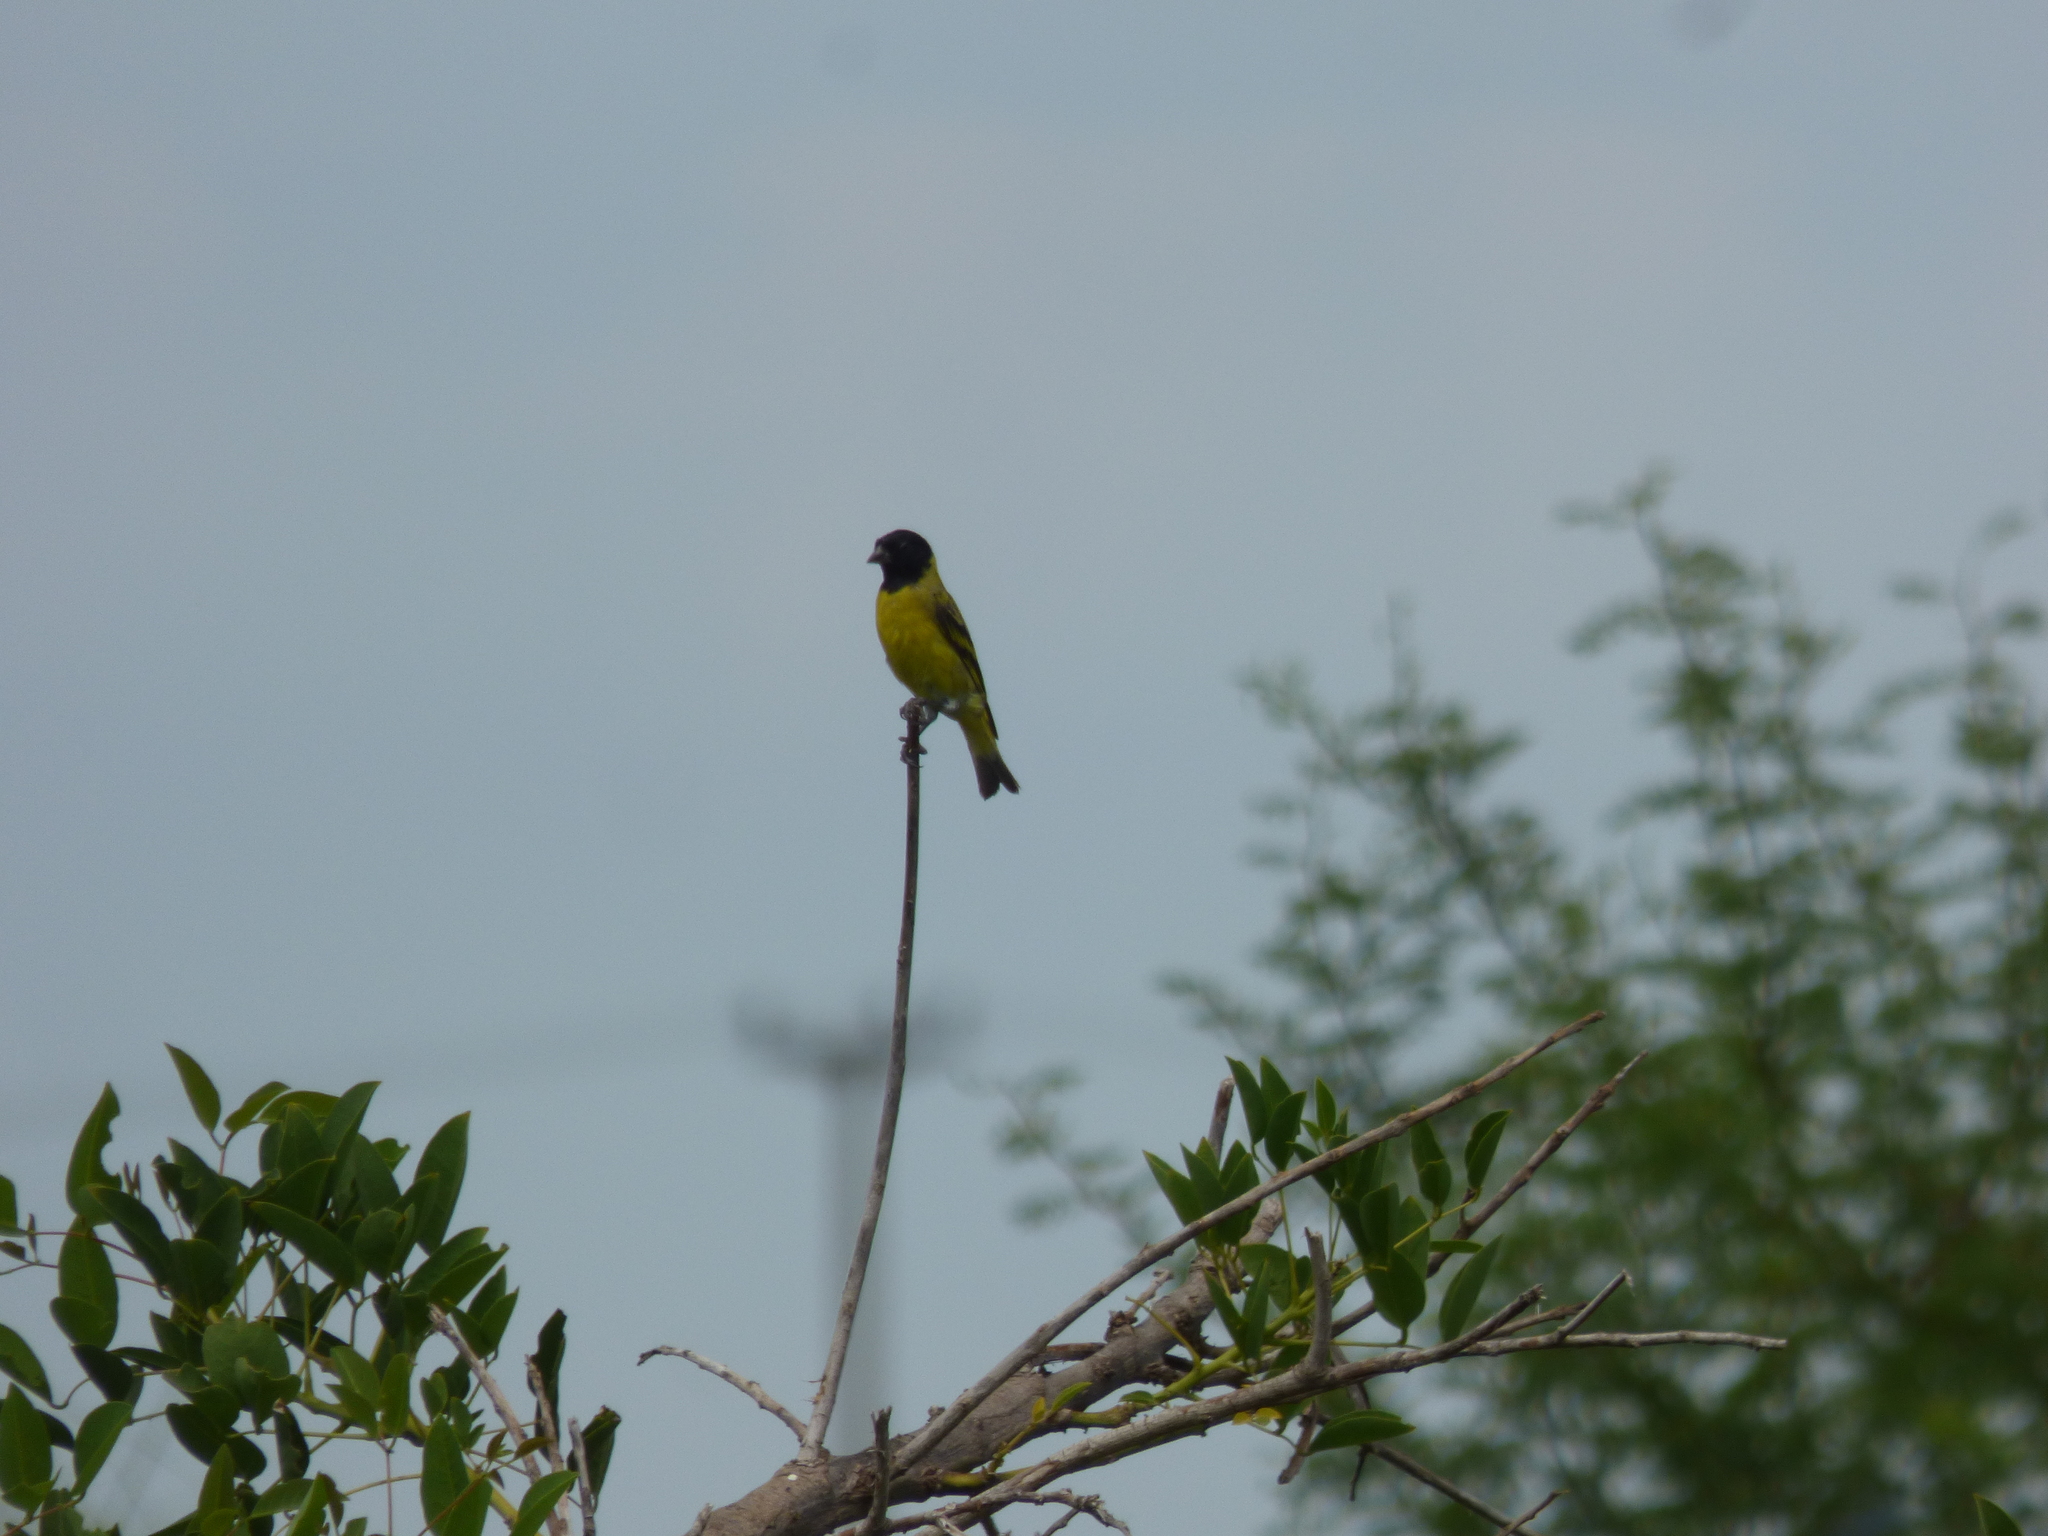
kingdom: Animalia
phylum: Chordata
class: Aves
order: Passeriformes
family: Fringillidae
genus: Spinus
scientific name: Spinus magellanicus
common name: Hooded siskin
